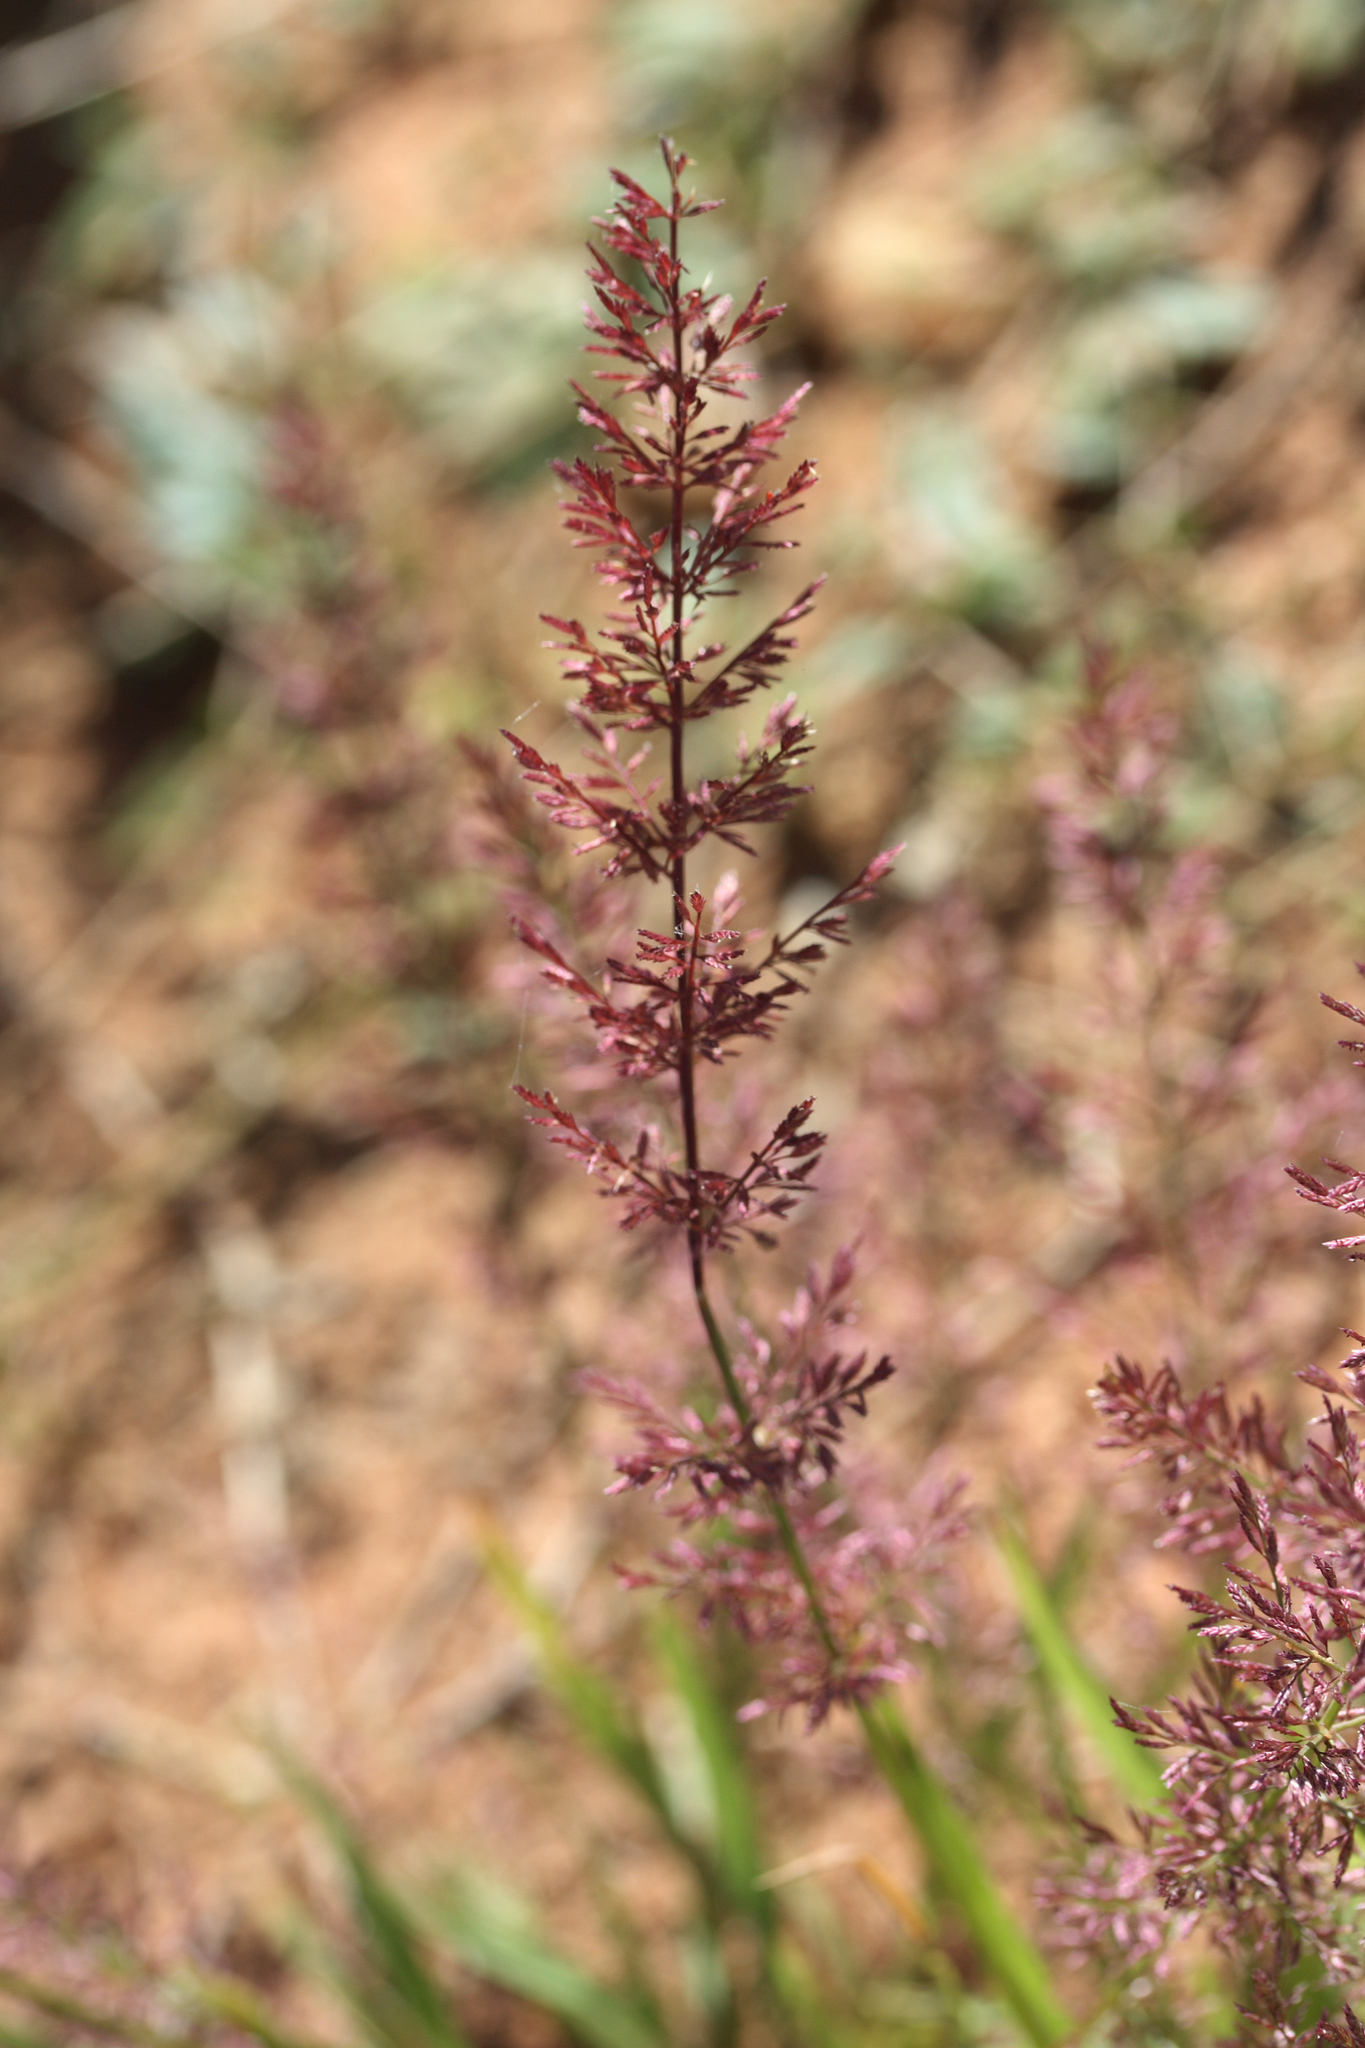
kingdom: Plantae
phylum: Tracheophyta
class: Liliopsida
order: Poales
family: Poaceae
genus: Eragrostis
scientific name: Eragrostis tenellula
